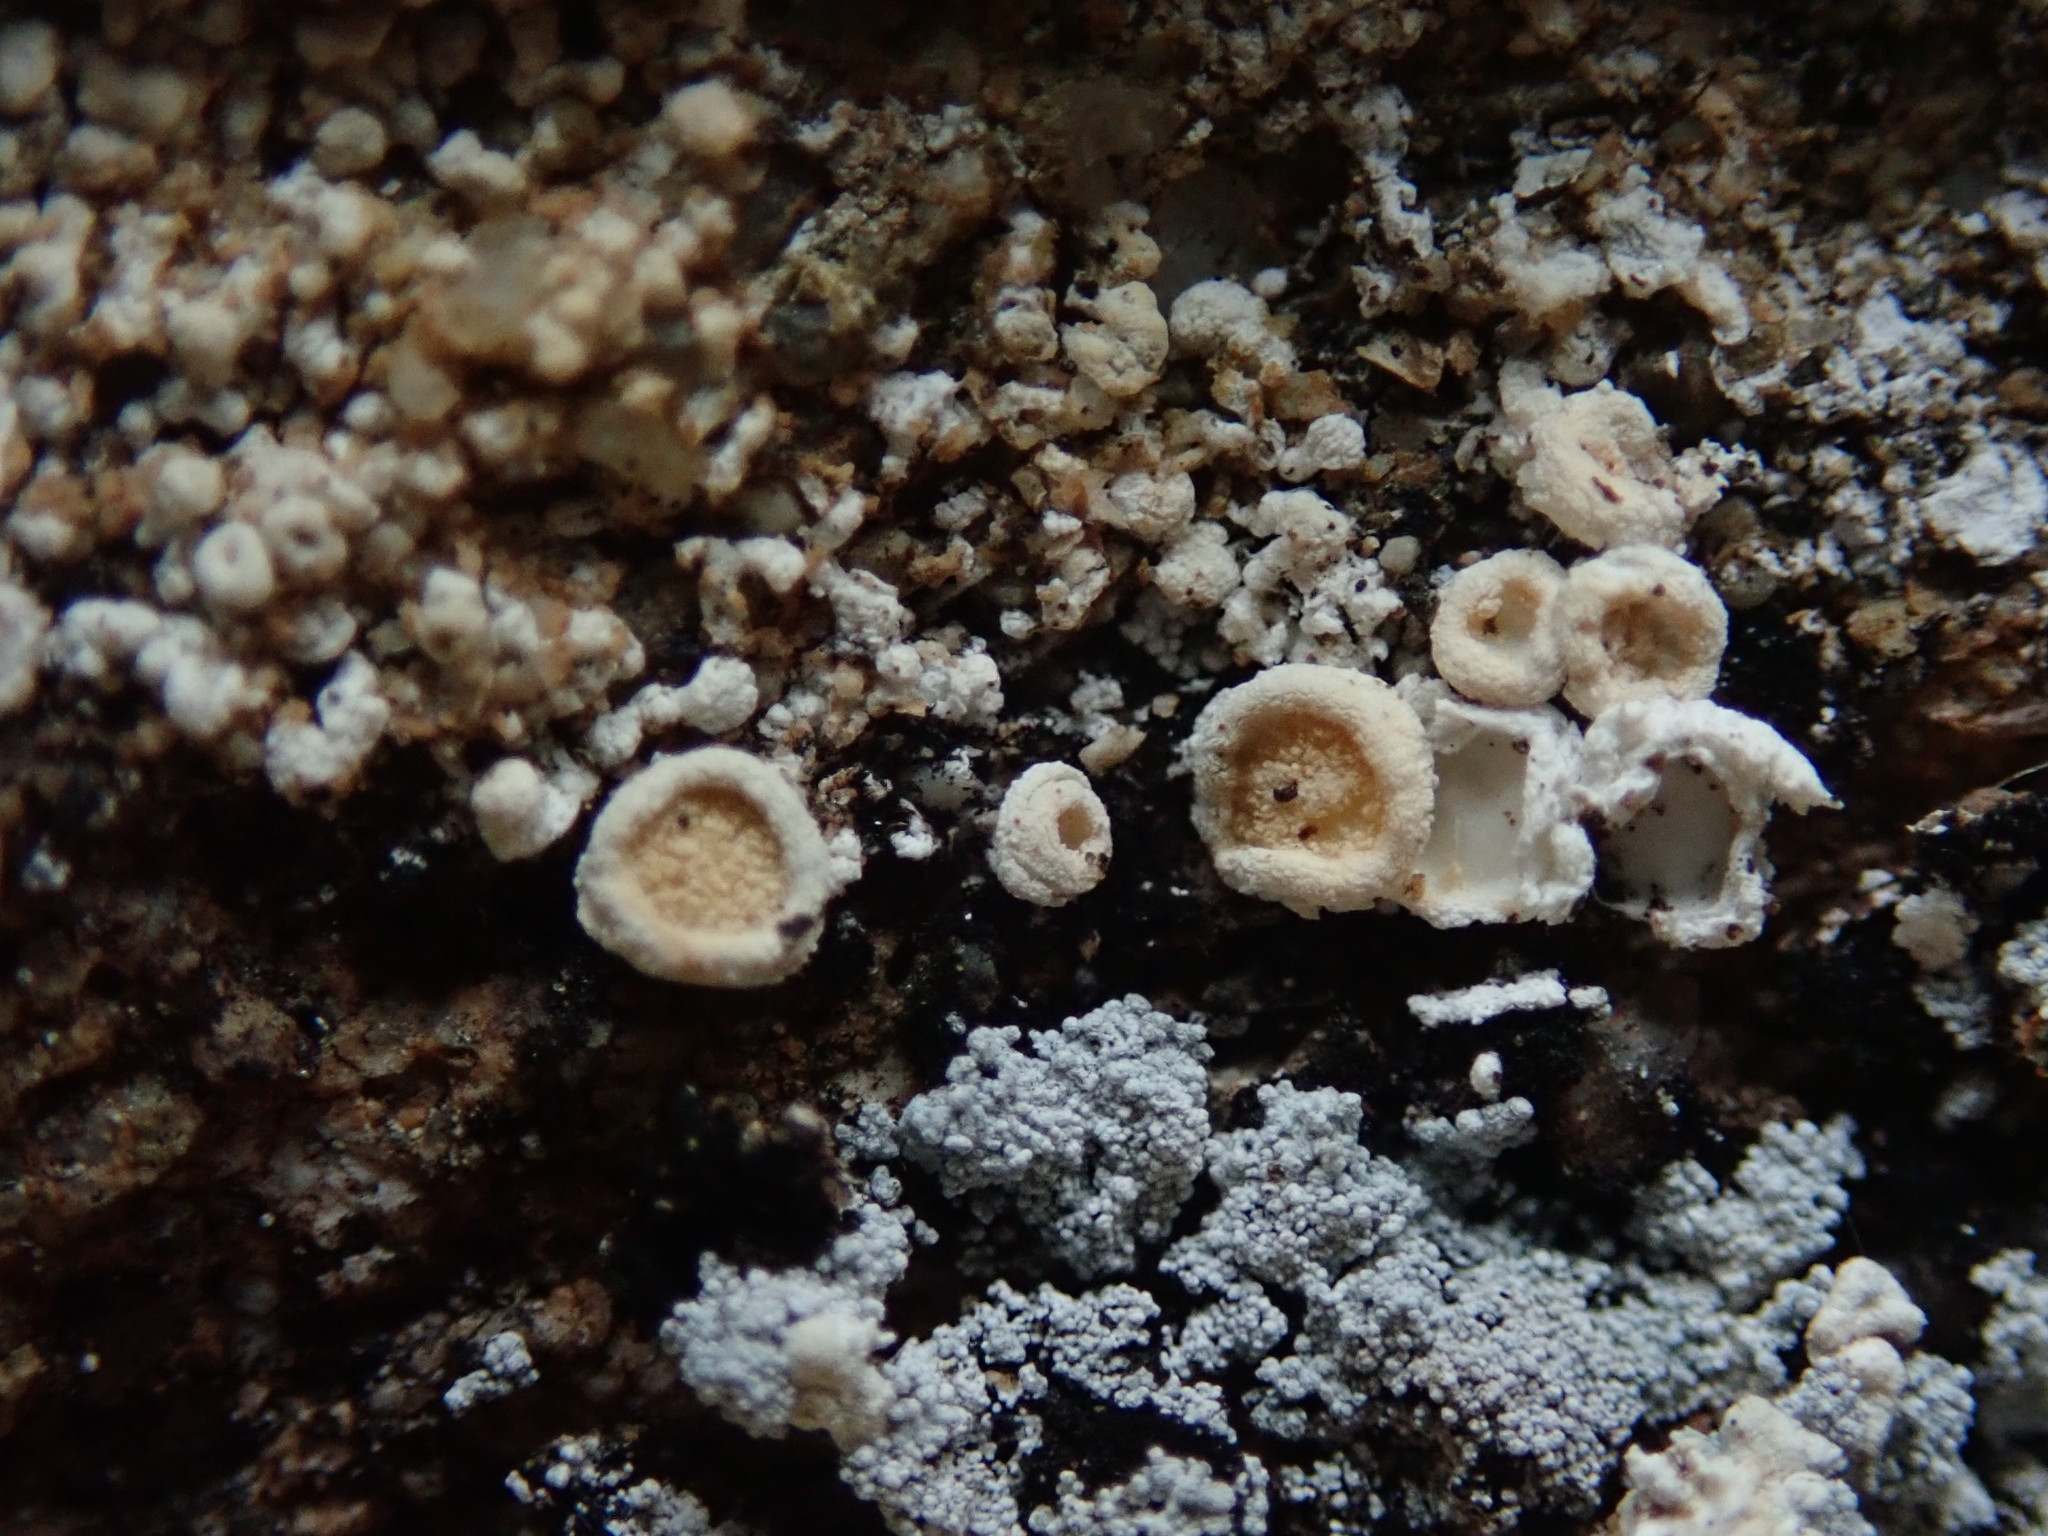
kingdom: Fungi
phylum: Ascomycota
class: Lecanoromycetes
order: Pertusariales
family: Ochrolechiaceae
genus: Ochrolechia
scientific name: Ochrolechia tartarea
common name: Cudbear
